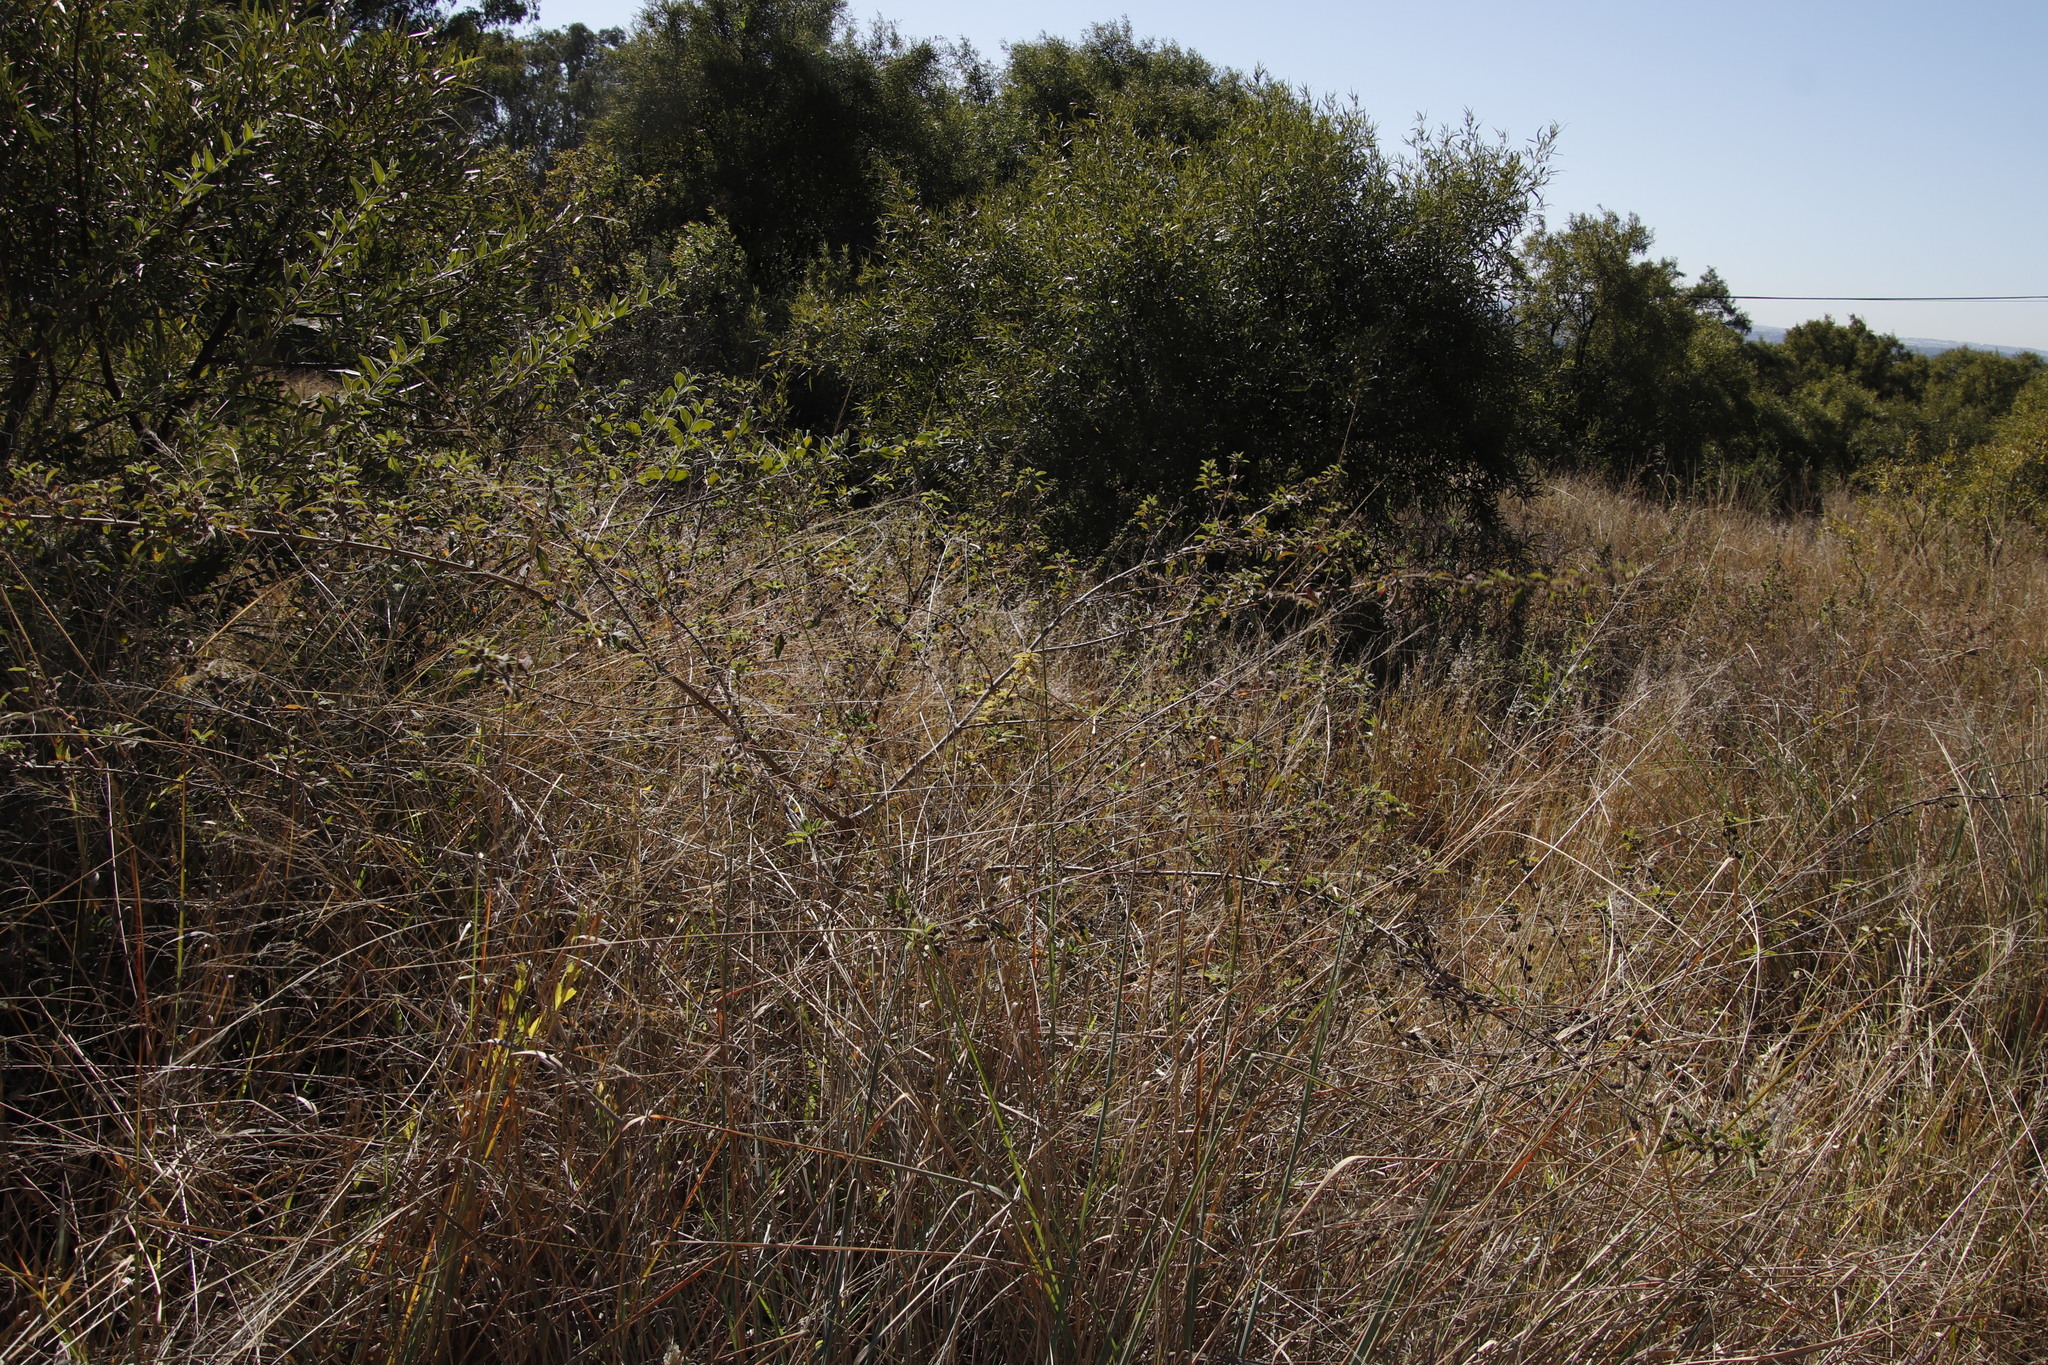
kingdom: Plantae
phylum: Tracheophyta
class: Magnoliopsida
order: Lamiales
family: Verbenaceae
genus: Lippia
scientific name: Lippia javanica
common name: Lemonbush
